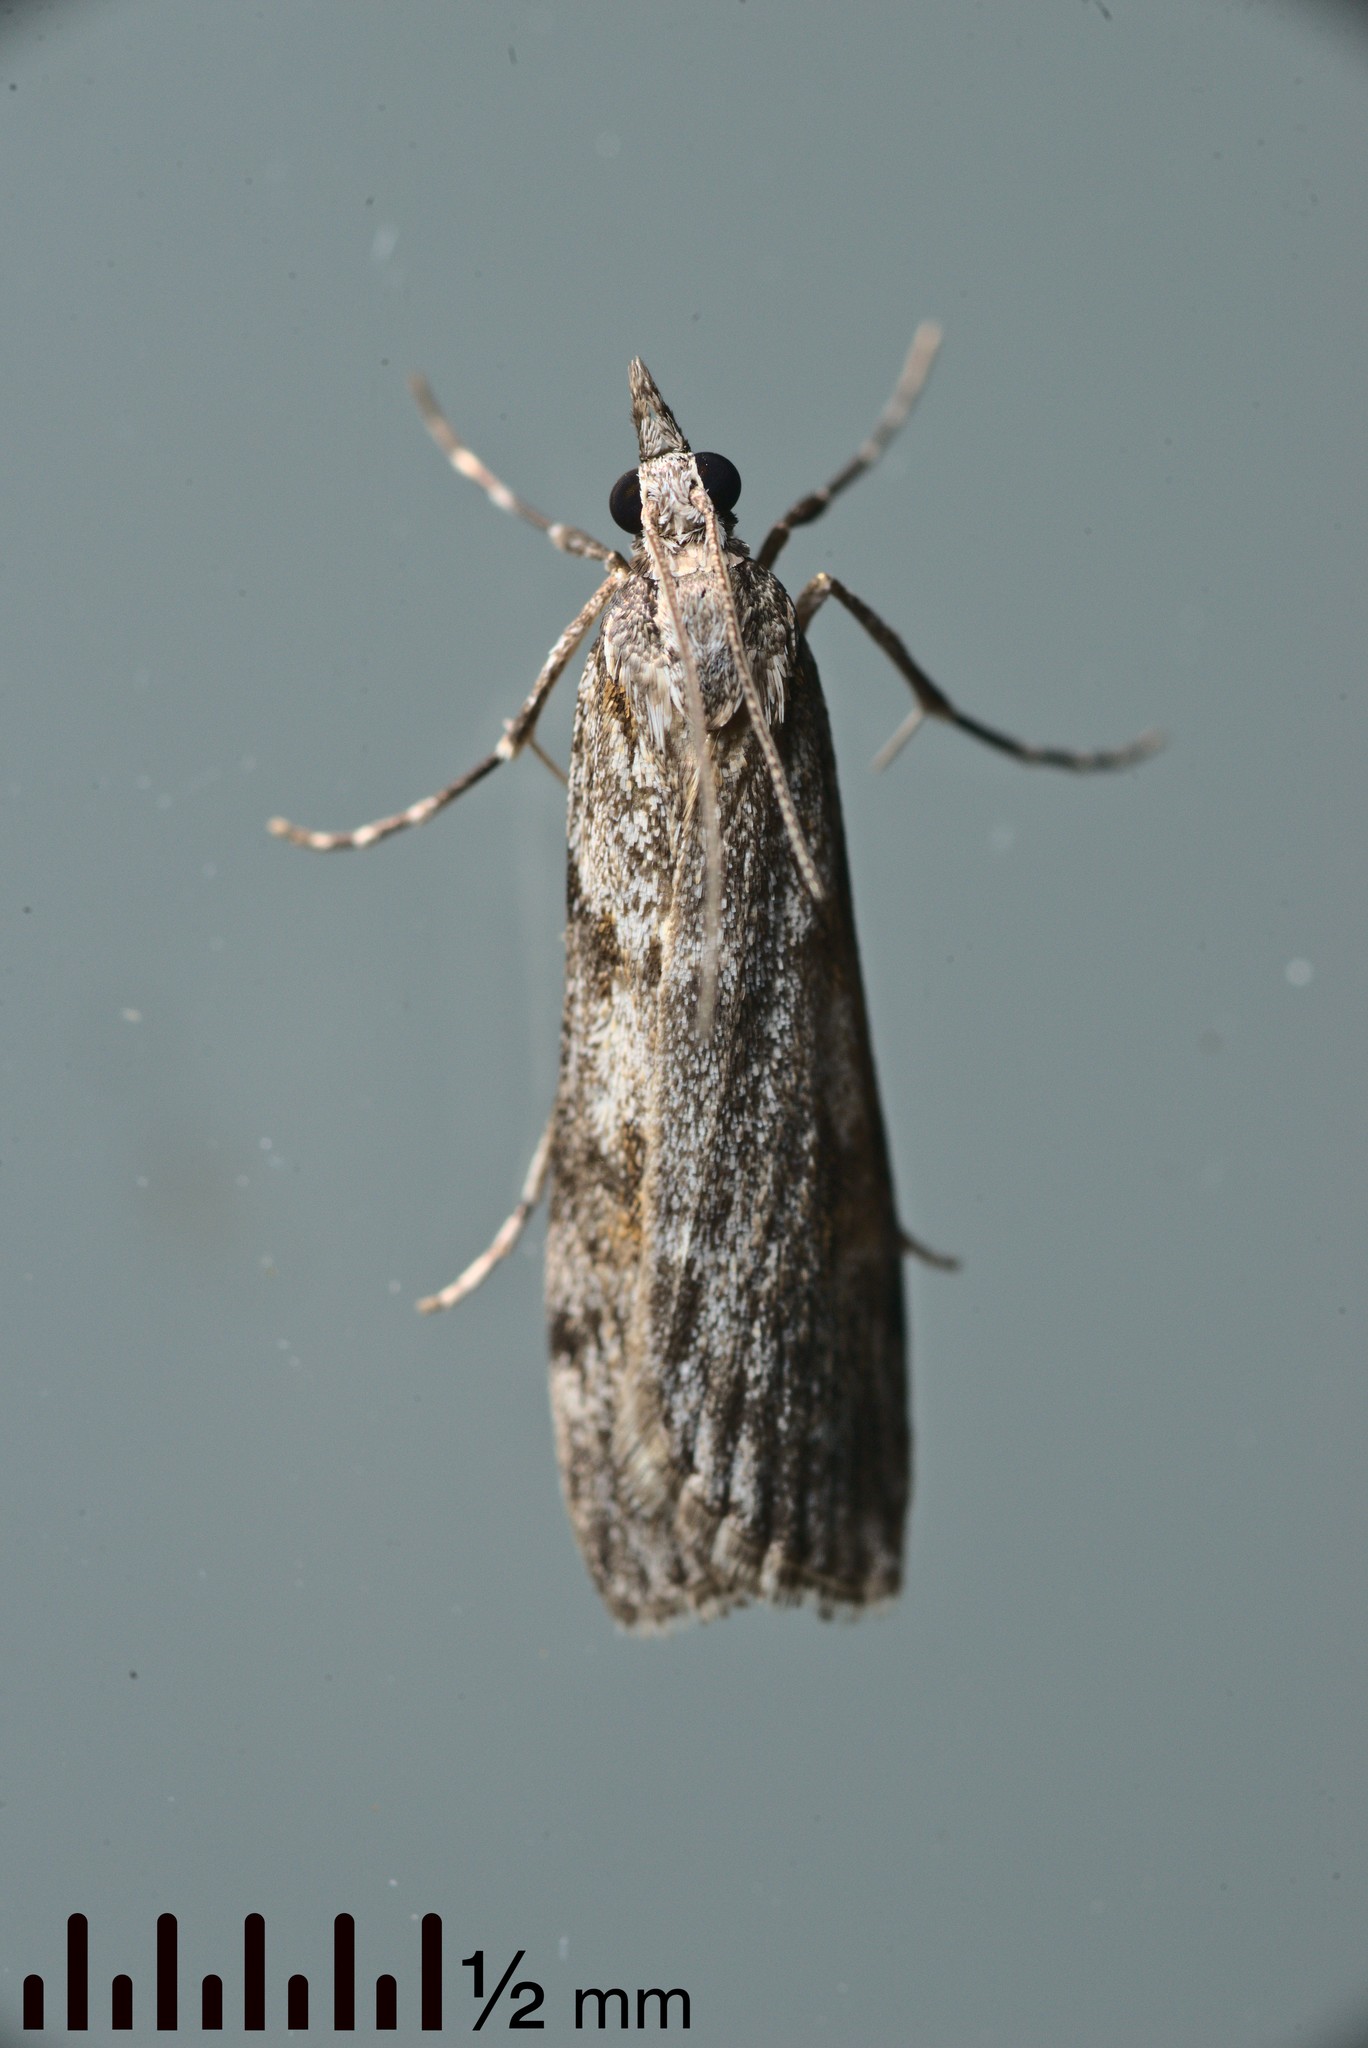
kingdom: Animalia
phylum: Arthropoda
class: Insecta
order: Lepidoptera
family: Crambidae
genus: Scoparia
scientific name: Scoparia halopis
